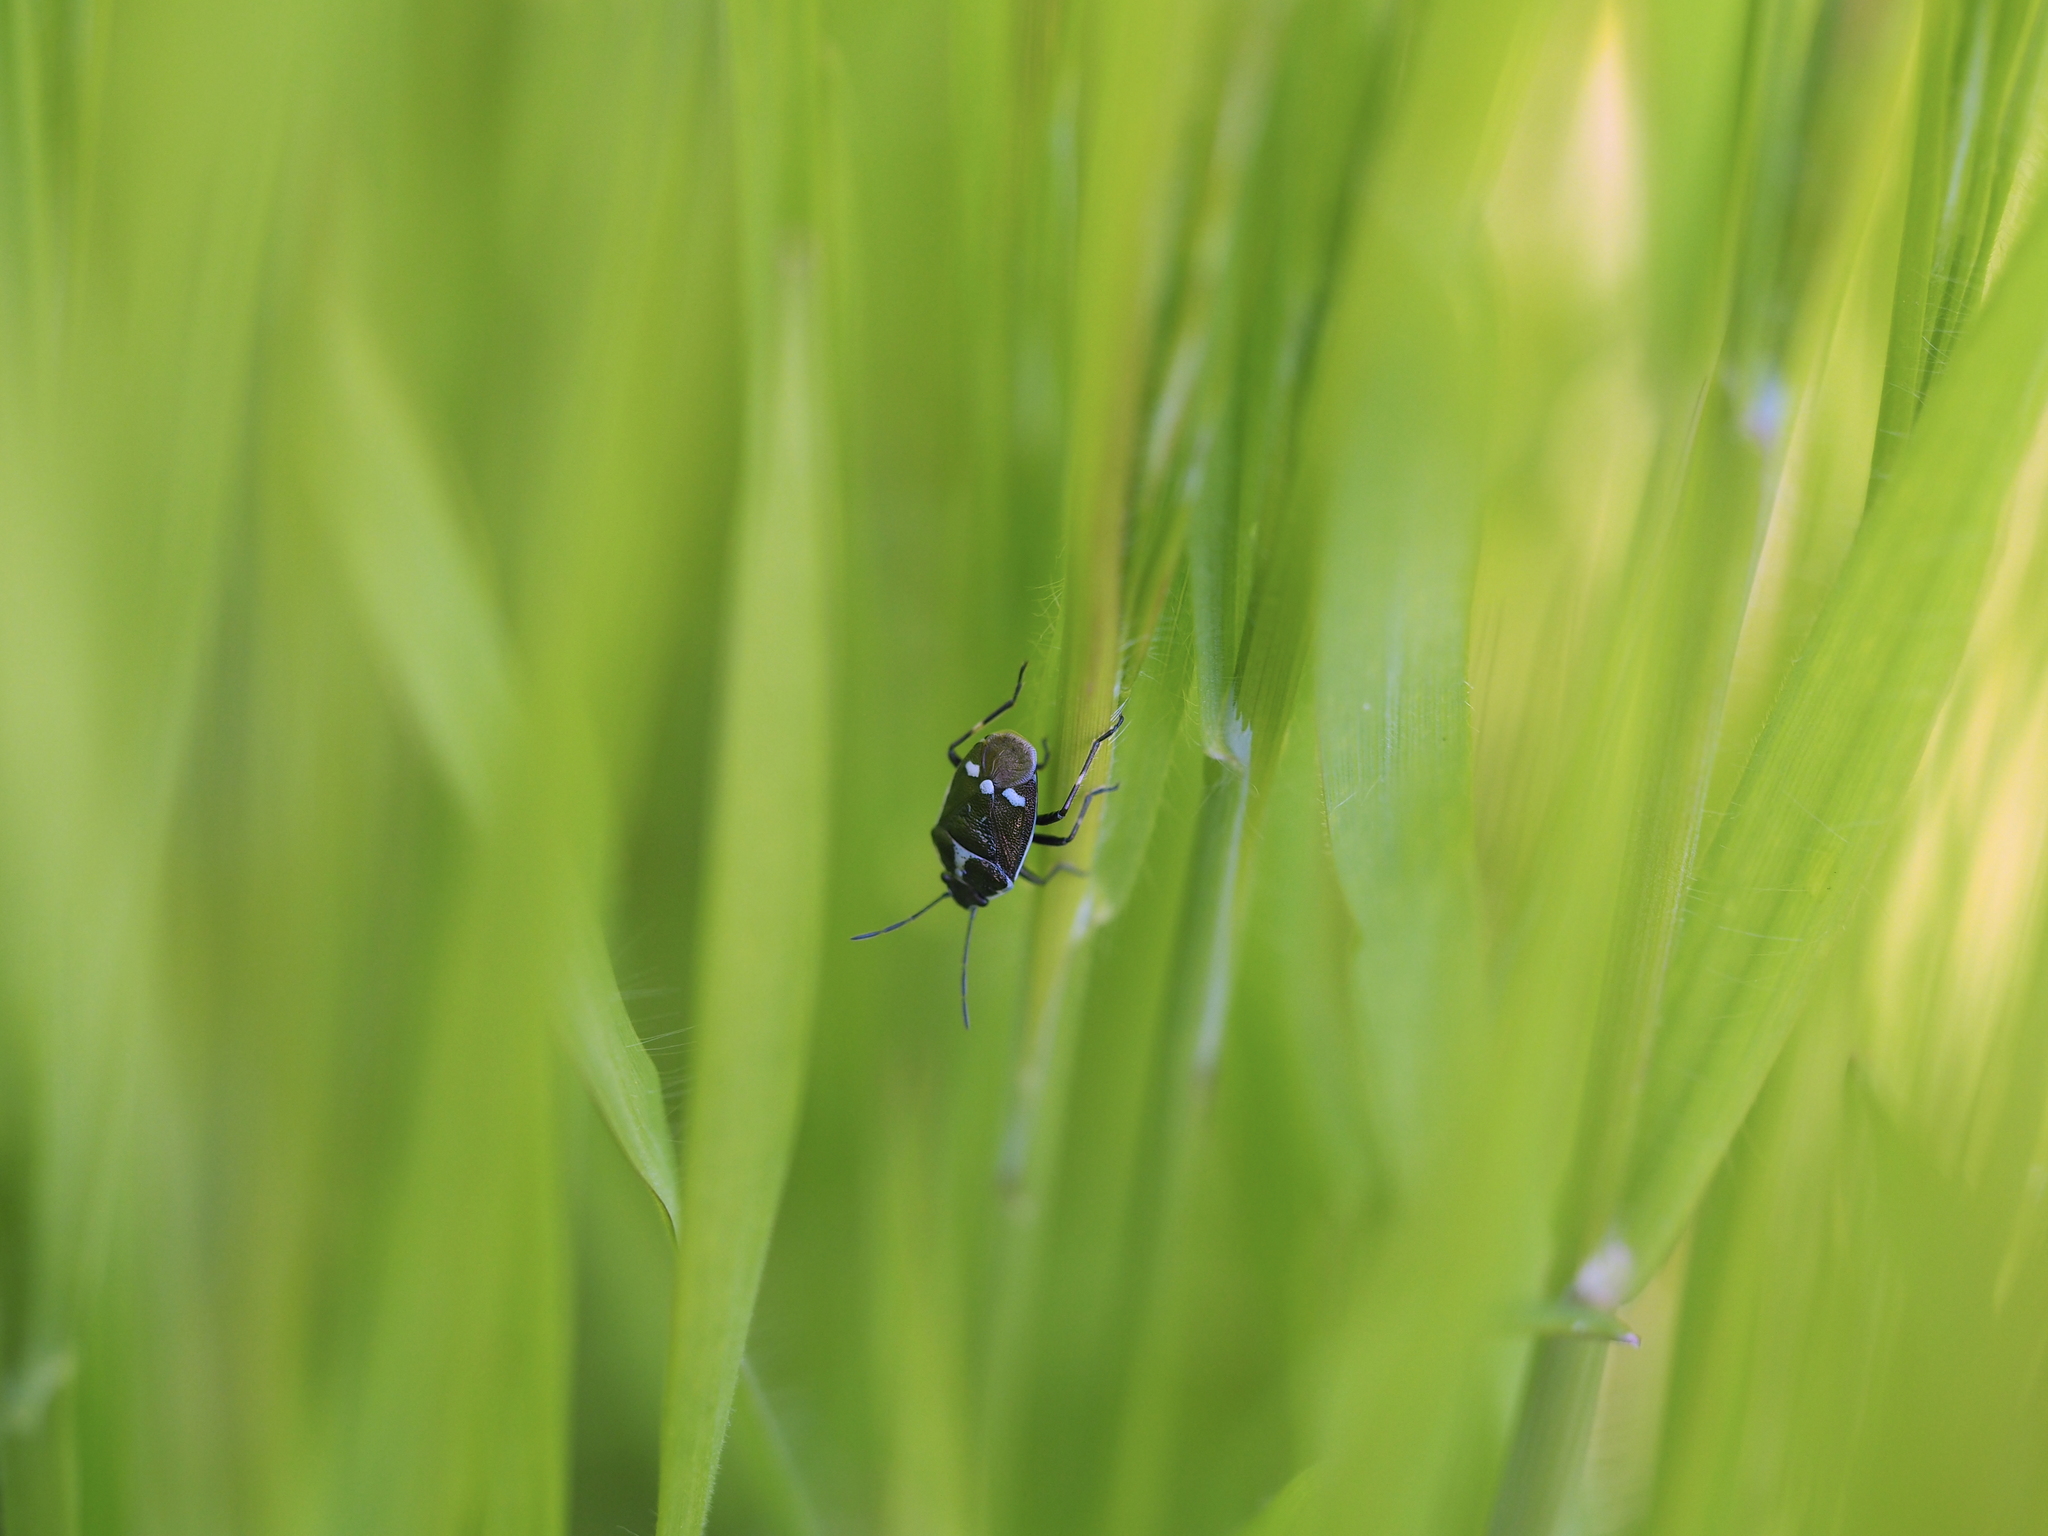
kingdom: Animalia
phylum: Arthropoda
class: Insecta
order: Hemiptera
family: Pentatomidae
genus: Eurydema
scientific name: Eurydema oleracea
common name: Cabbage bug
